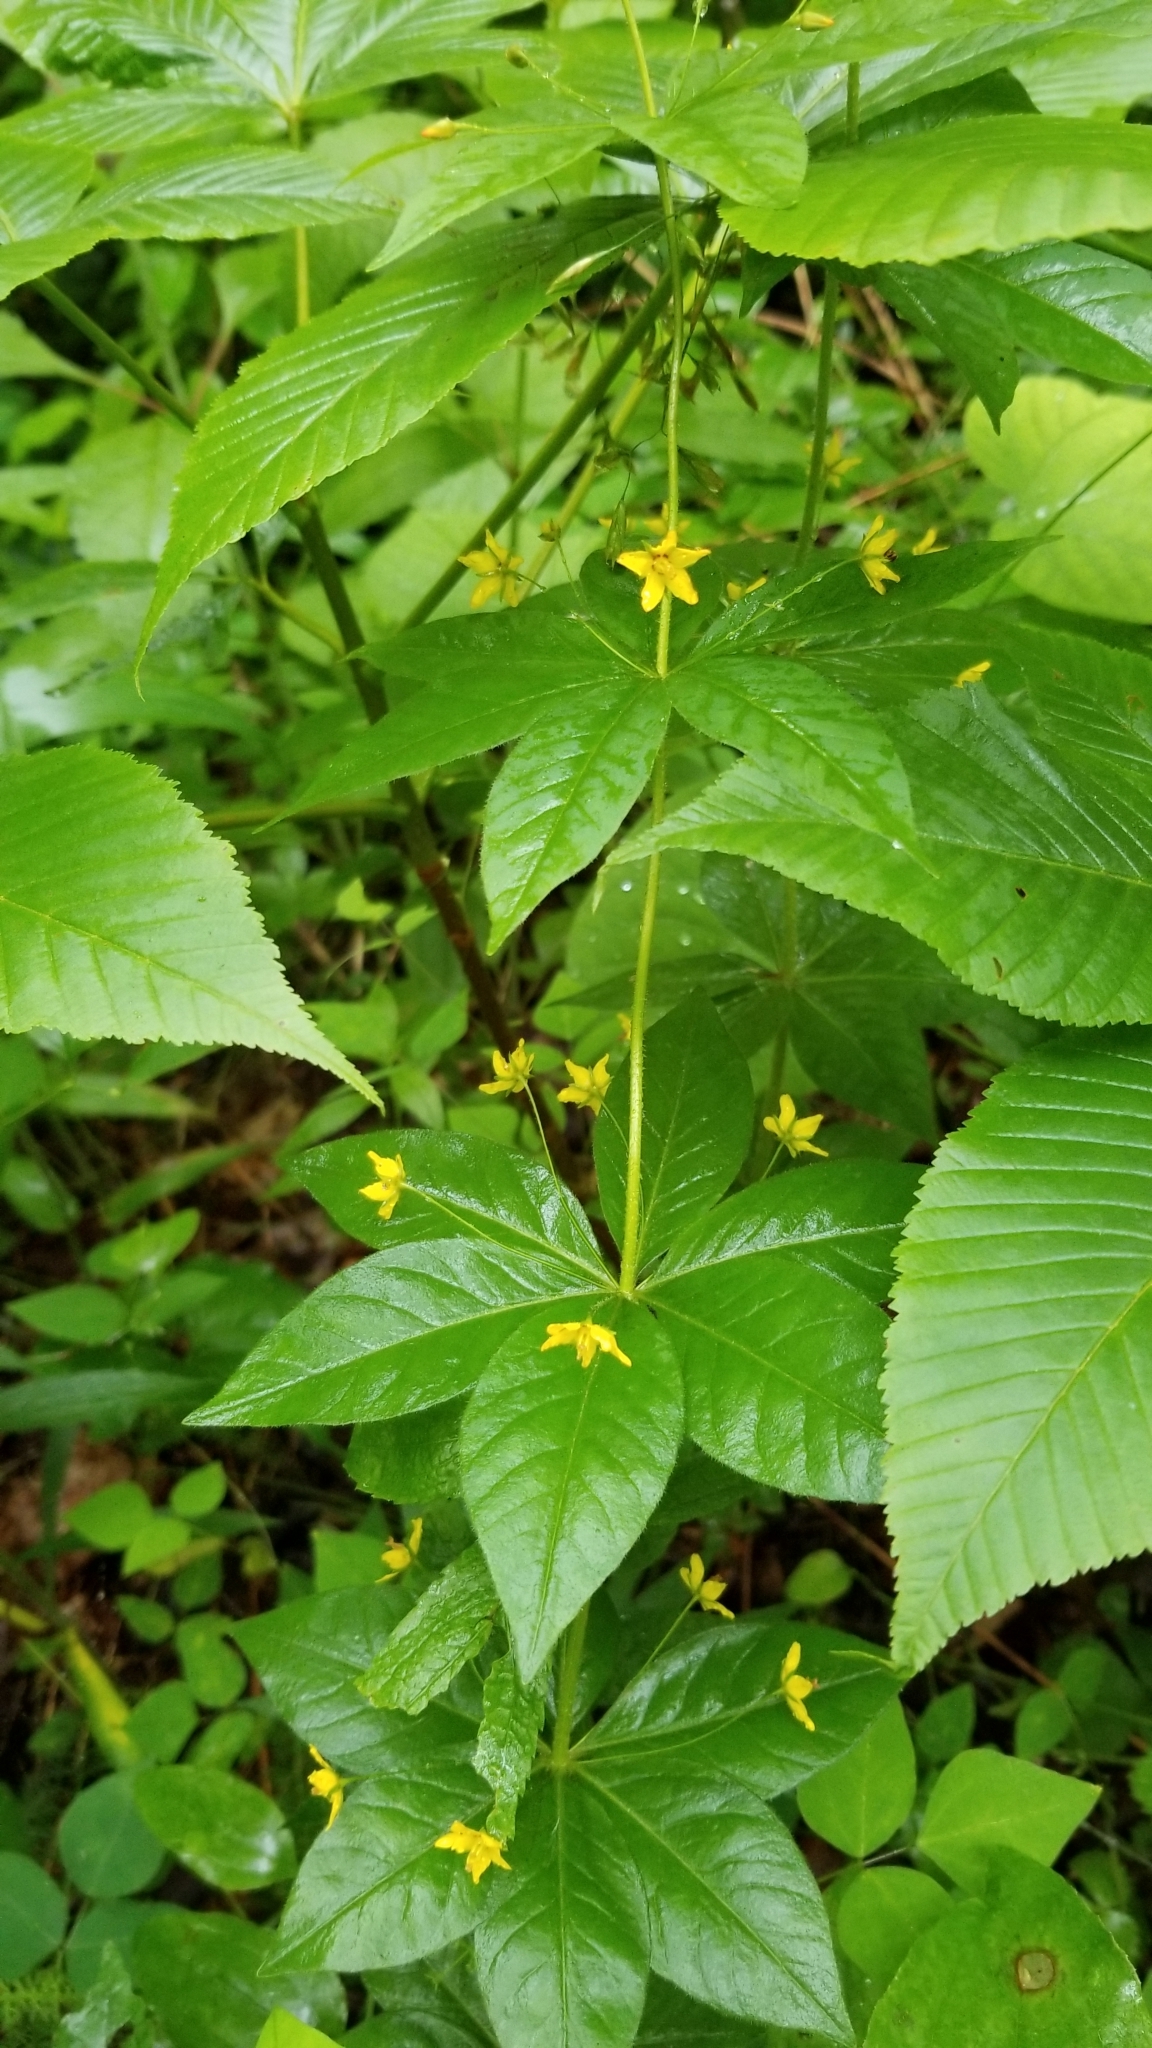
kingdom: Plantae
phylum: Tracheophyta
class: Magnoliopsida
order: Ericales
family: Primulaceae
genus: Lysimachia
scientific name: Lysimachia quadrifolia
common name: Whorled loosestrife
